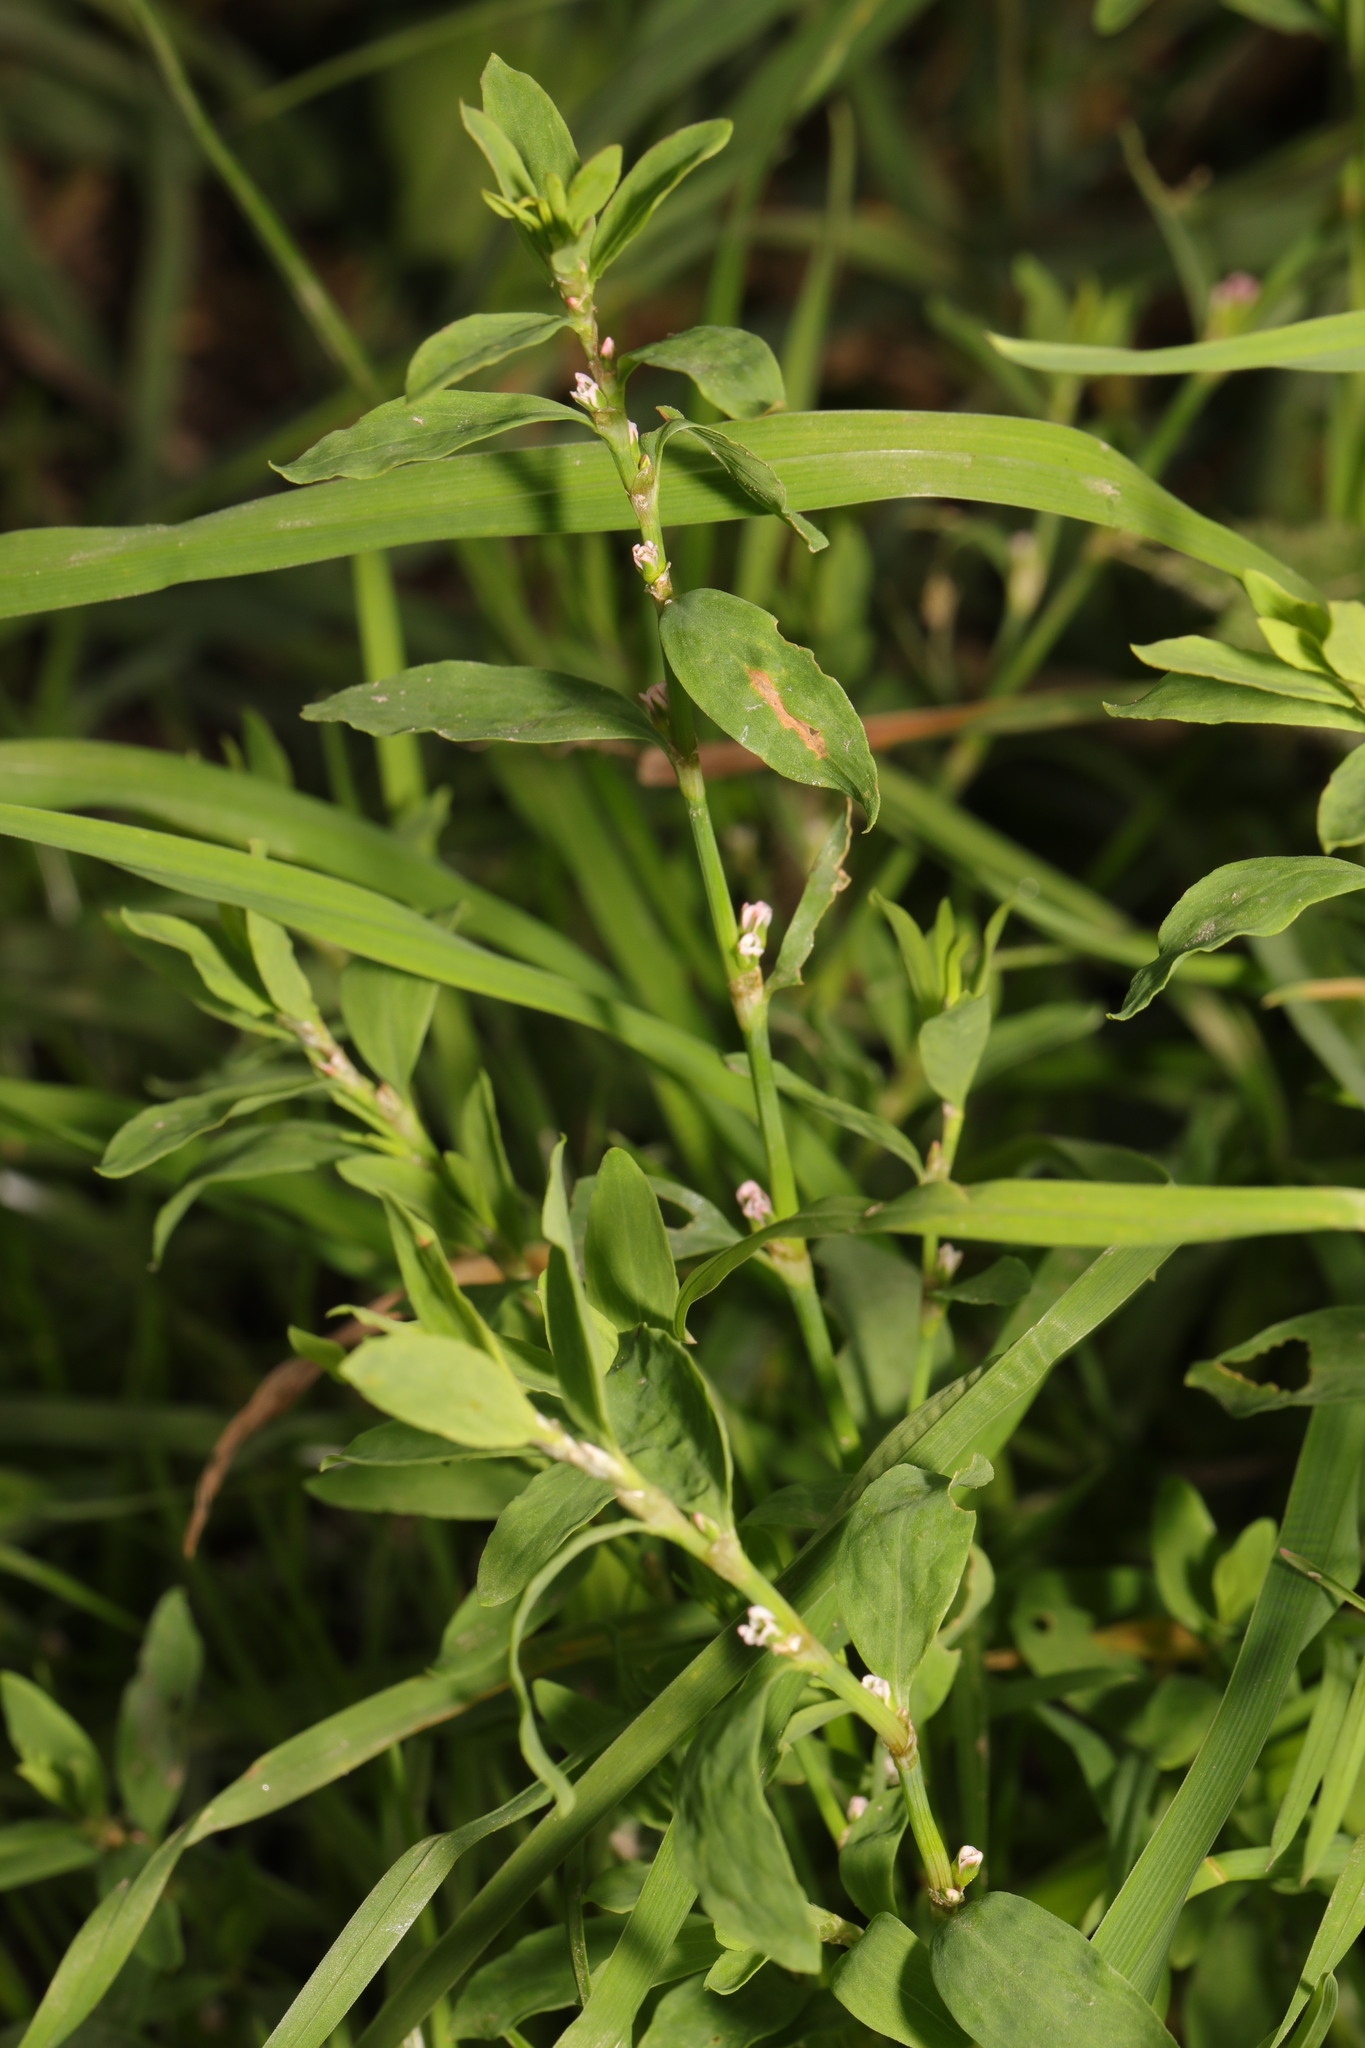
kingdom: Plantae
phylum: Tracheophyta
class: Magnoliopsida
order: Caryophyllales
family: Polygonaceae
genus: Polygonum
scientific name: Polygonum aviculare
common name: Prostrate knotweed
